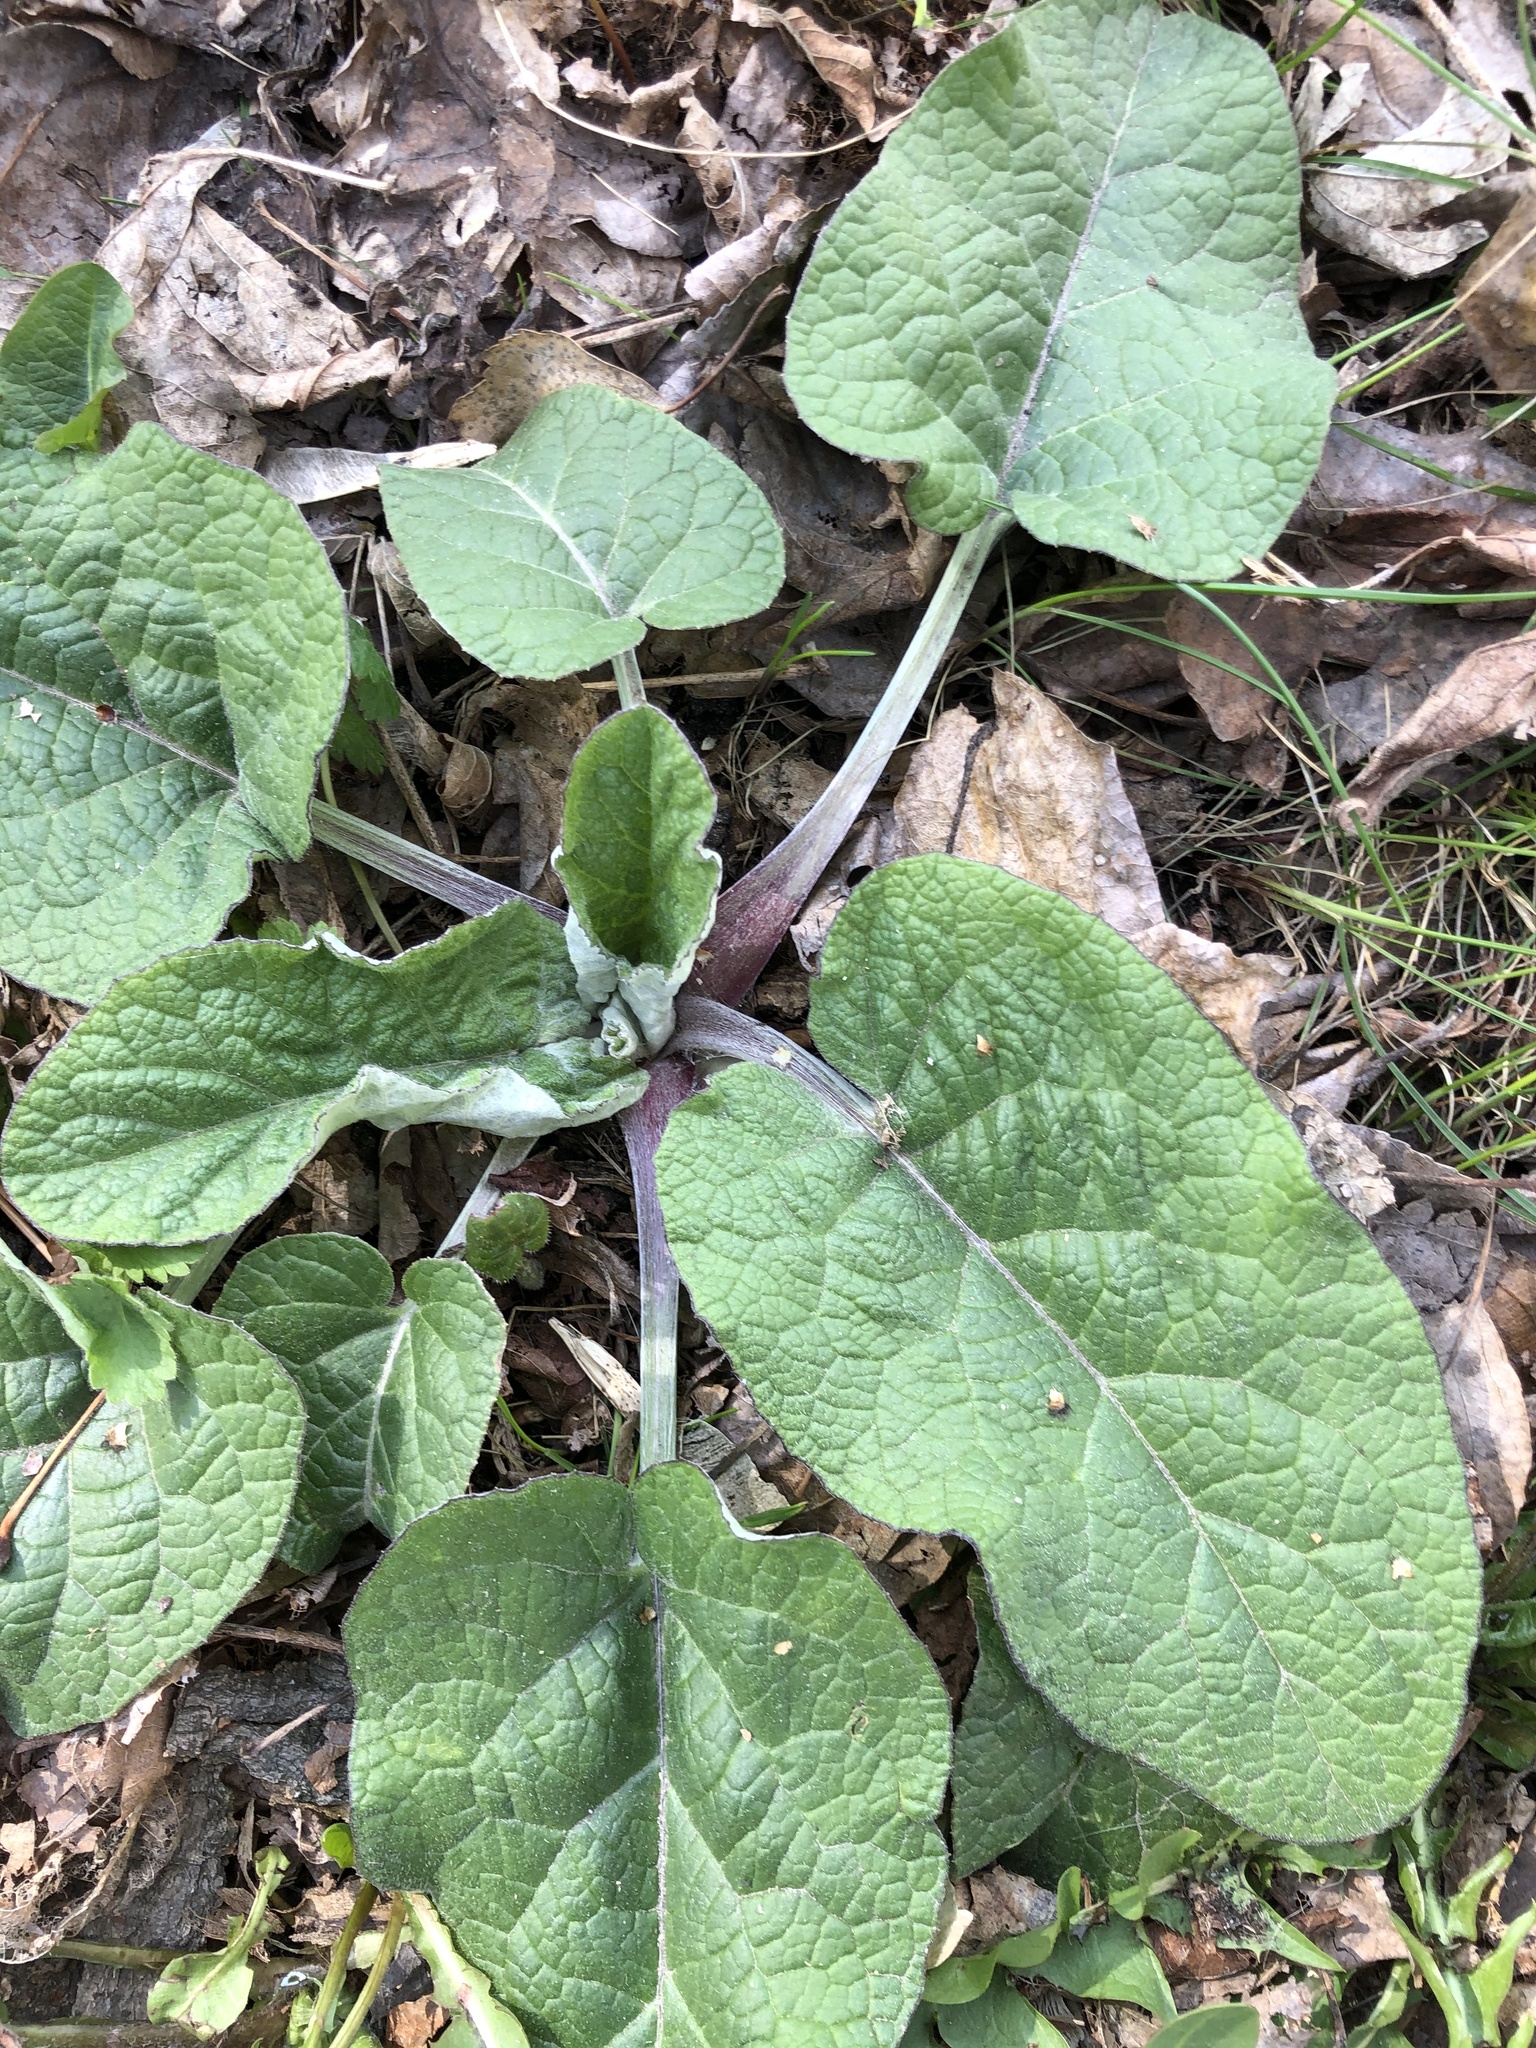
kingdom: Plantae
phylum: Tracheophyta
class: Magnoliopsida
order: Asterales
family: Asteraceae
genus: Arctium
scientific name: Arctium tomentosum
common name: Woolly burdock
